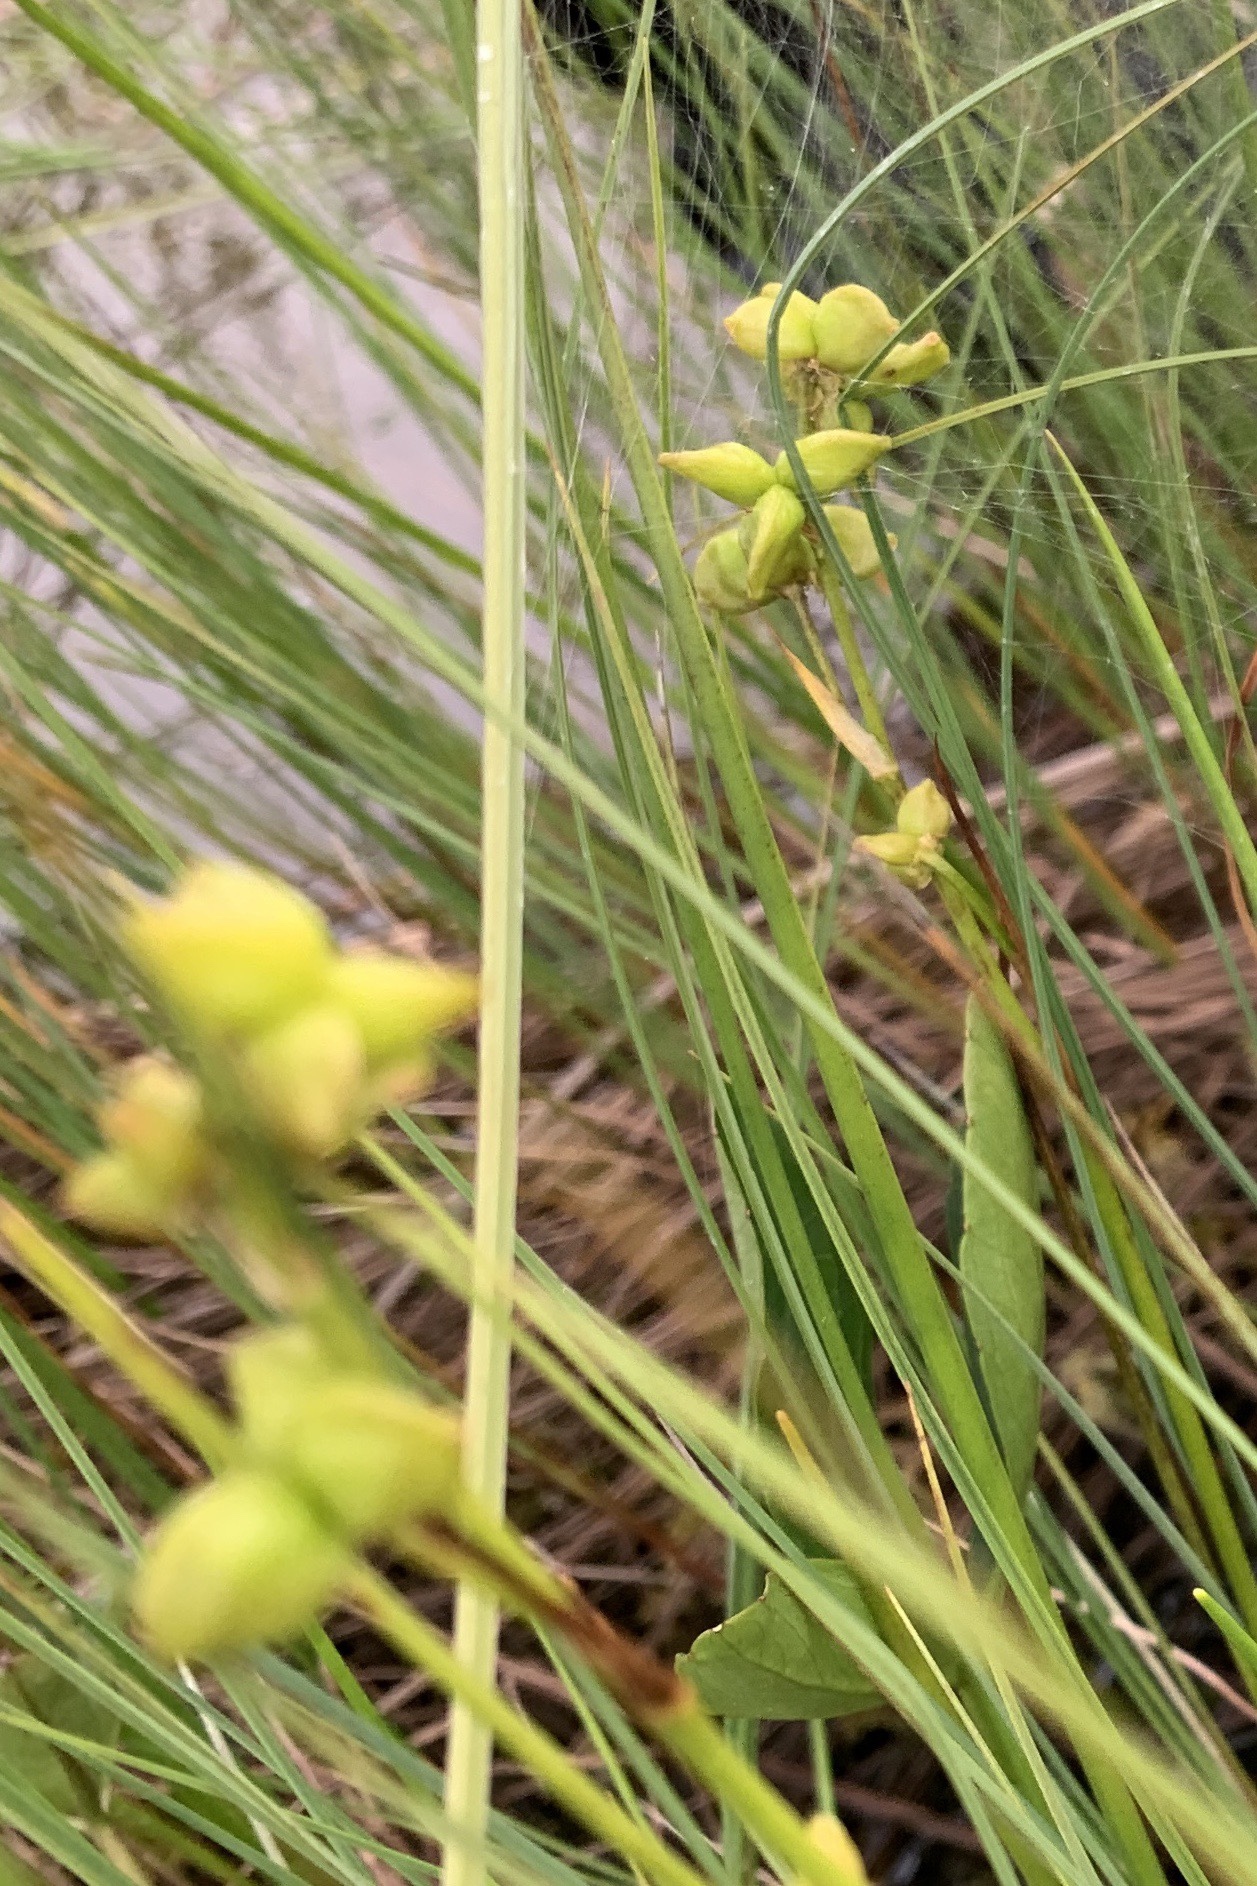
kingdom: Plantae
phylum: Tracheophyta
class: Liliopsida
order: Alismatales
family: Scheuchzeriaceae
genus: Scheuchzeria
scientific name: Scheuchzeria palustris
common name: Rannoch-rush
